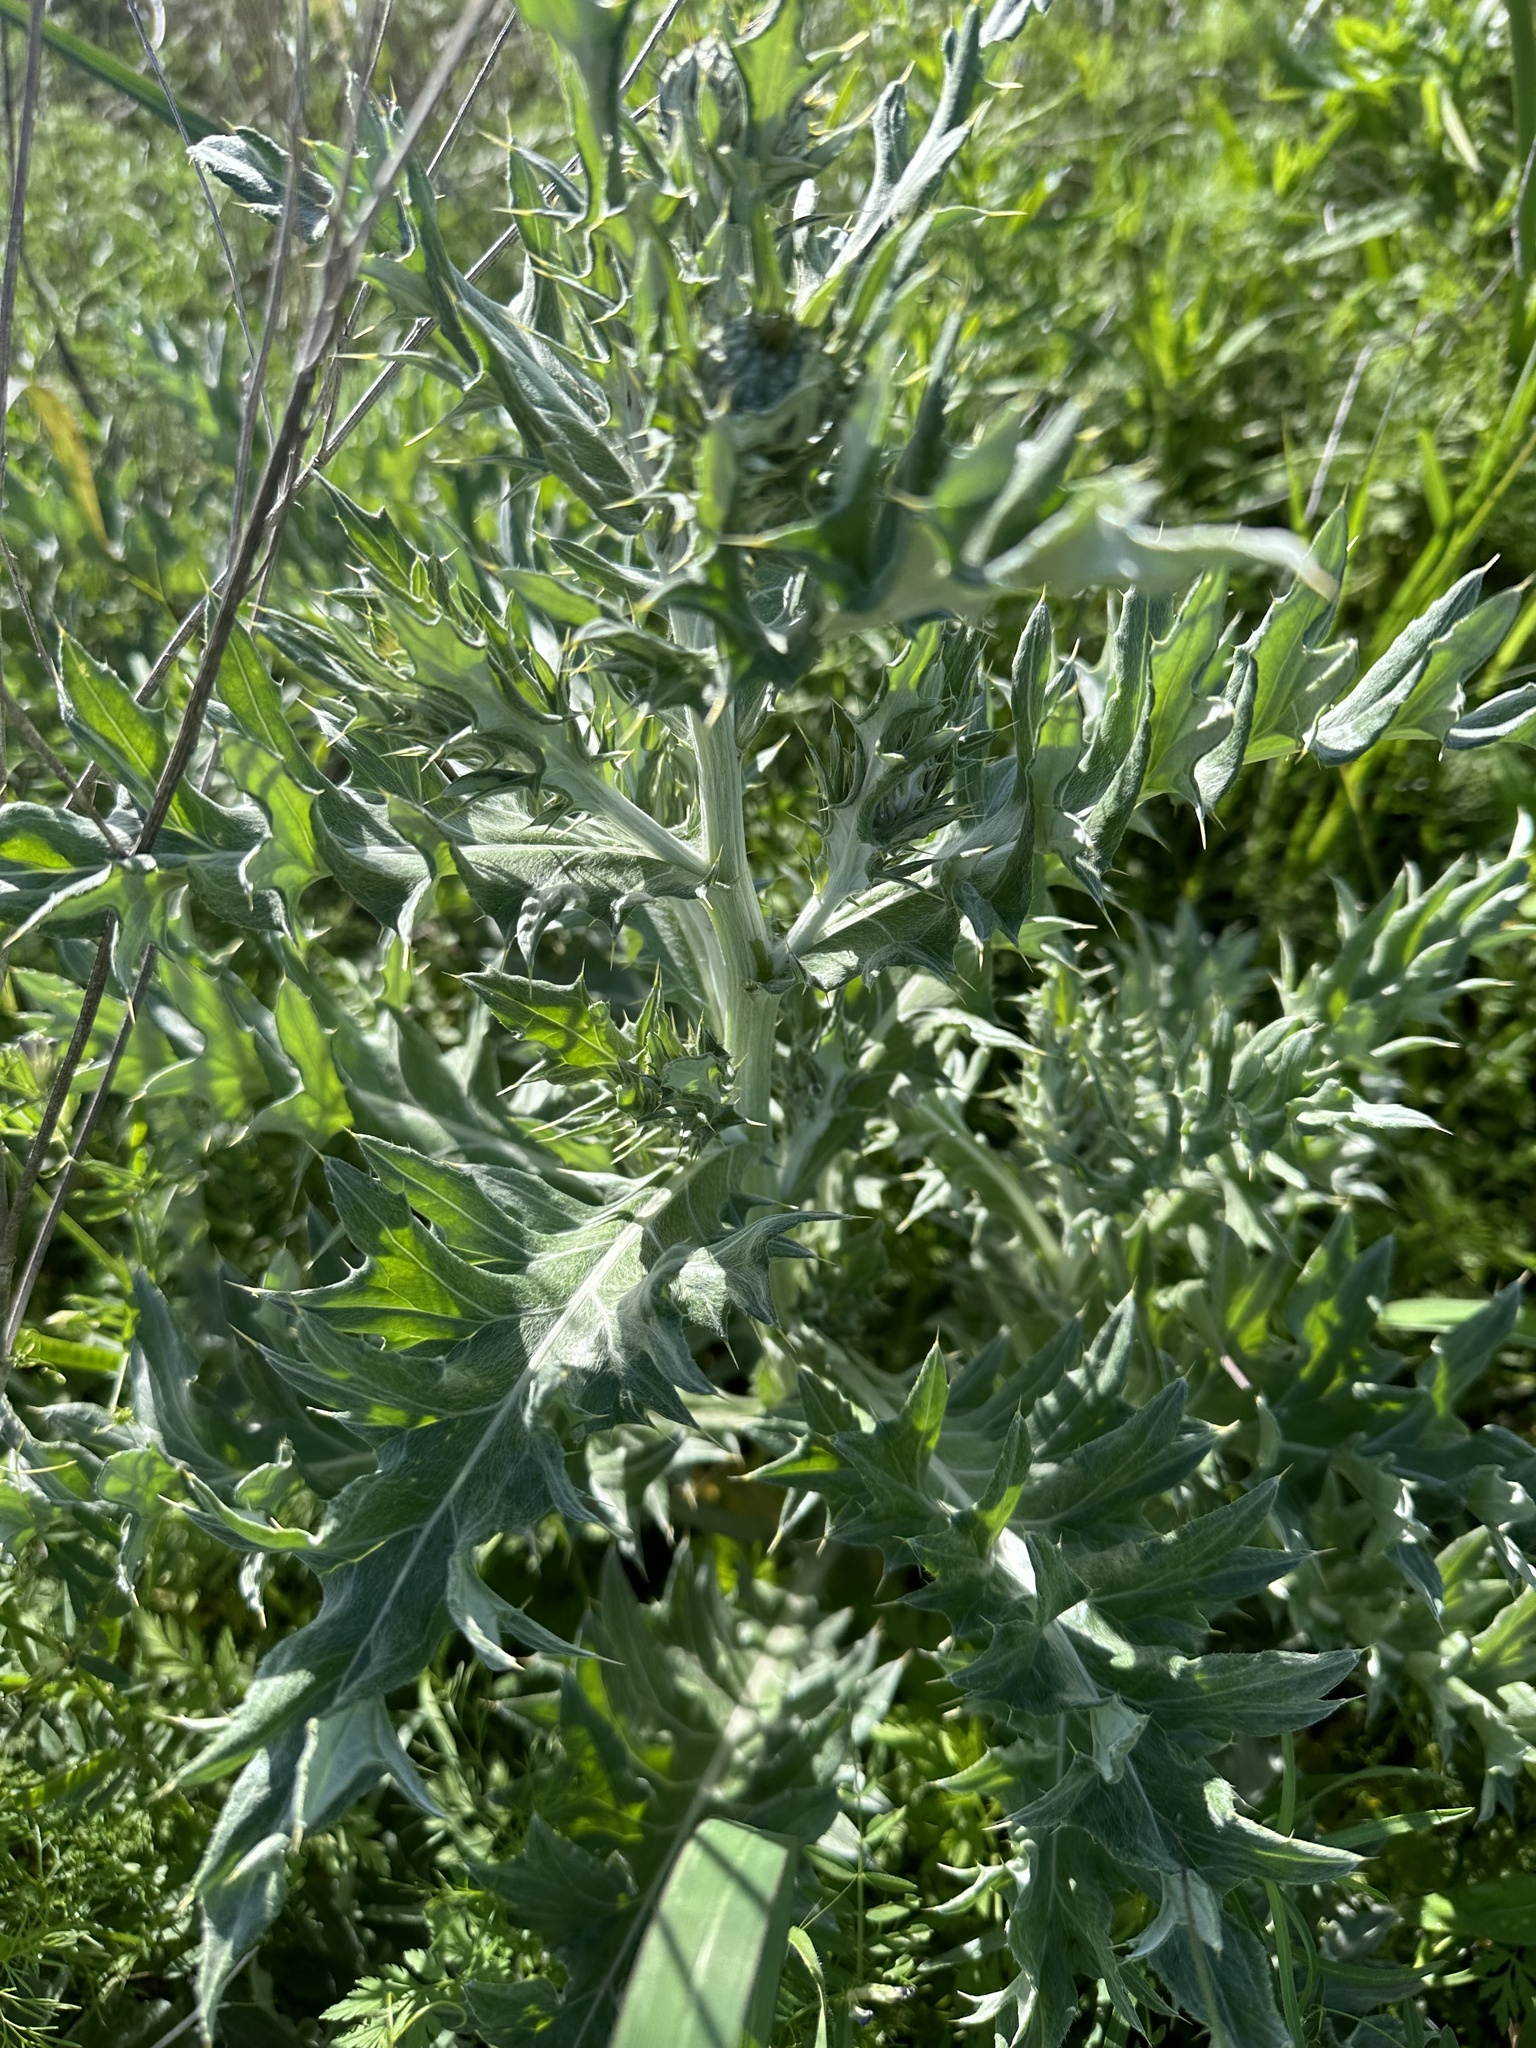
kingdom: Plantae
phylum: Tracheophyta
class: Magnoliopsida
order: Asterales
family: Asteraceae
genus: Cirsium
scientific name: Cirsium undulatum
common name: Pasture thistle
